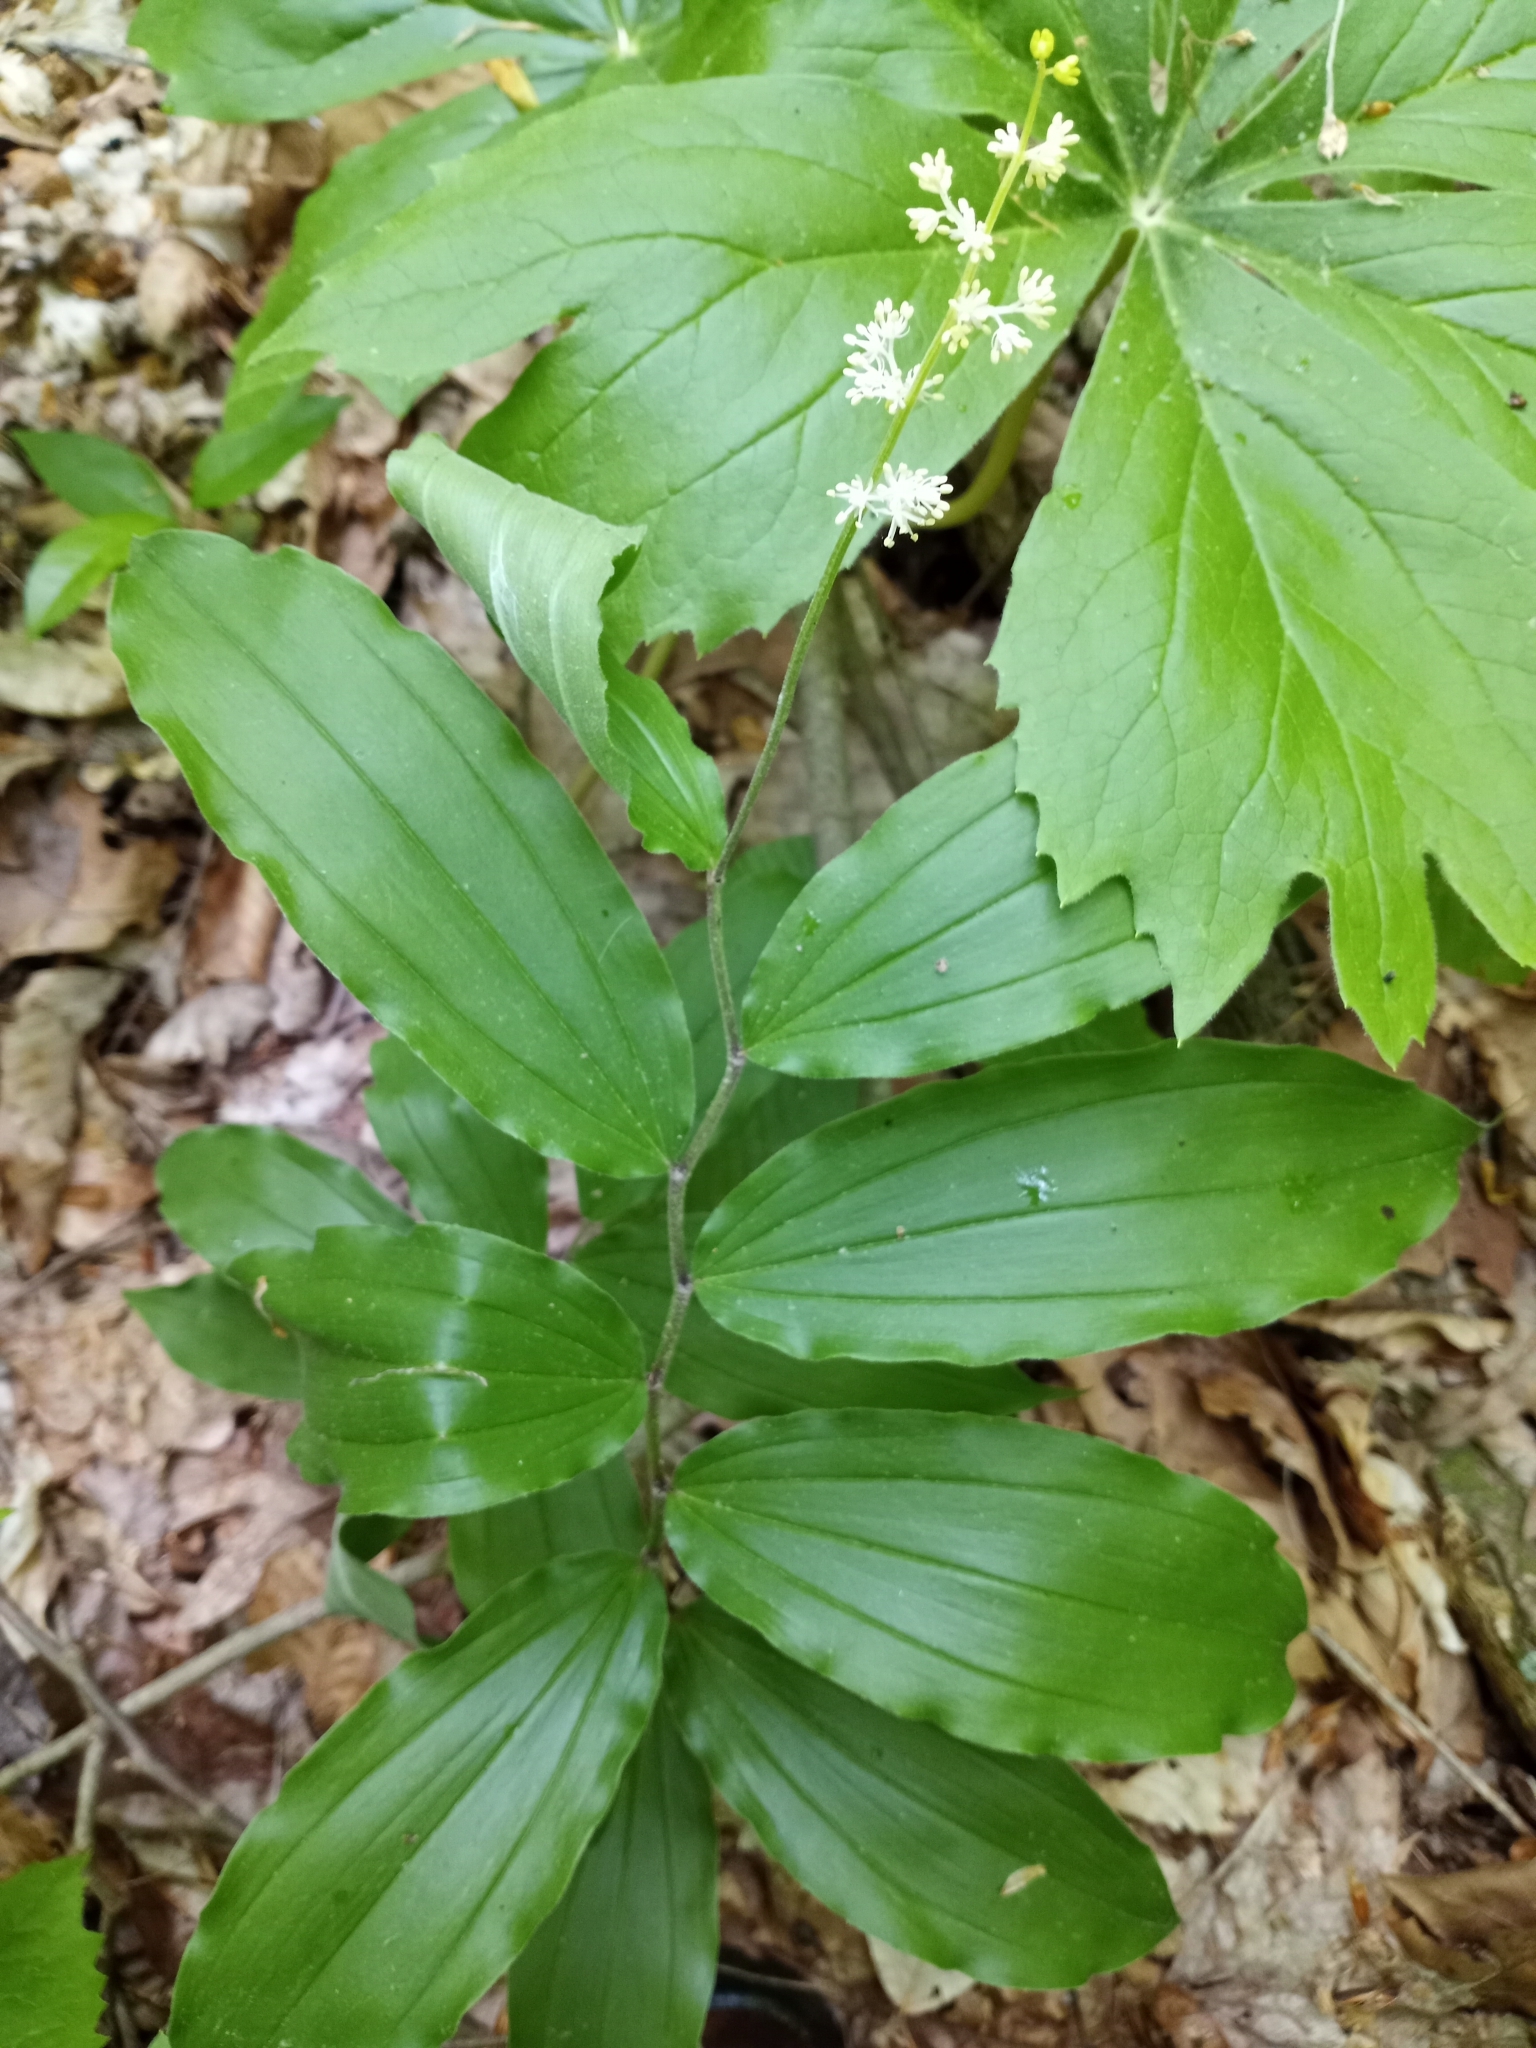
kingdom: Plantae
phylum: Tracheophyta
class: Liliopsida
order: Asparagales
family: Asparagaceae
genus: Maianthemum
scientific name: Maianthemum racemosum
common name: False spikenard
